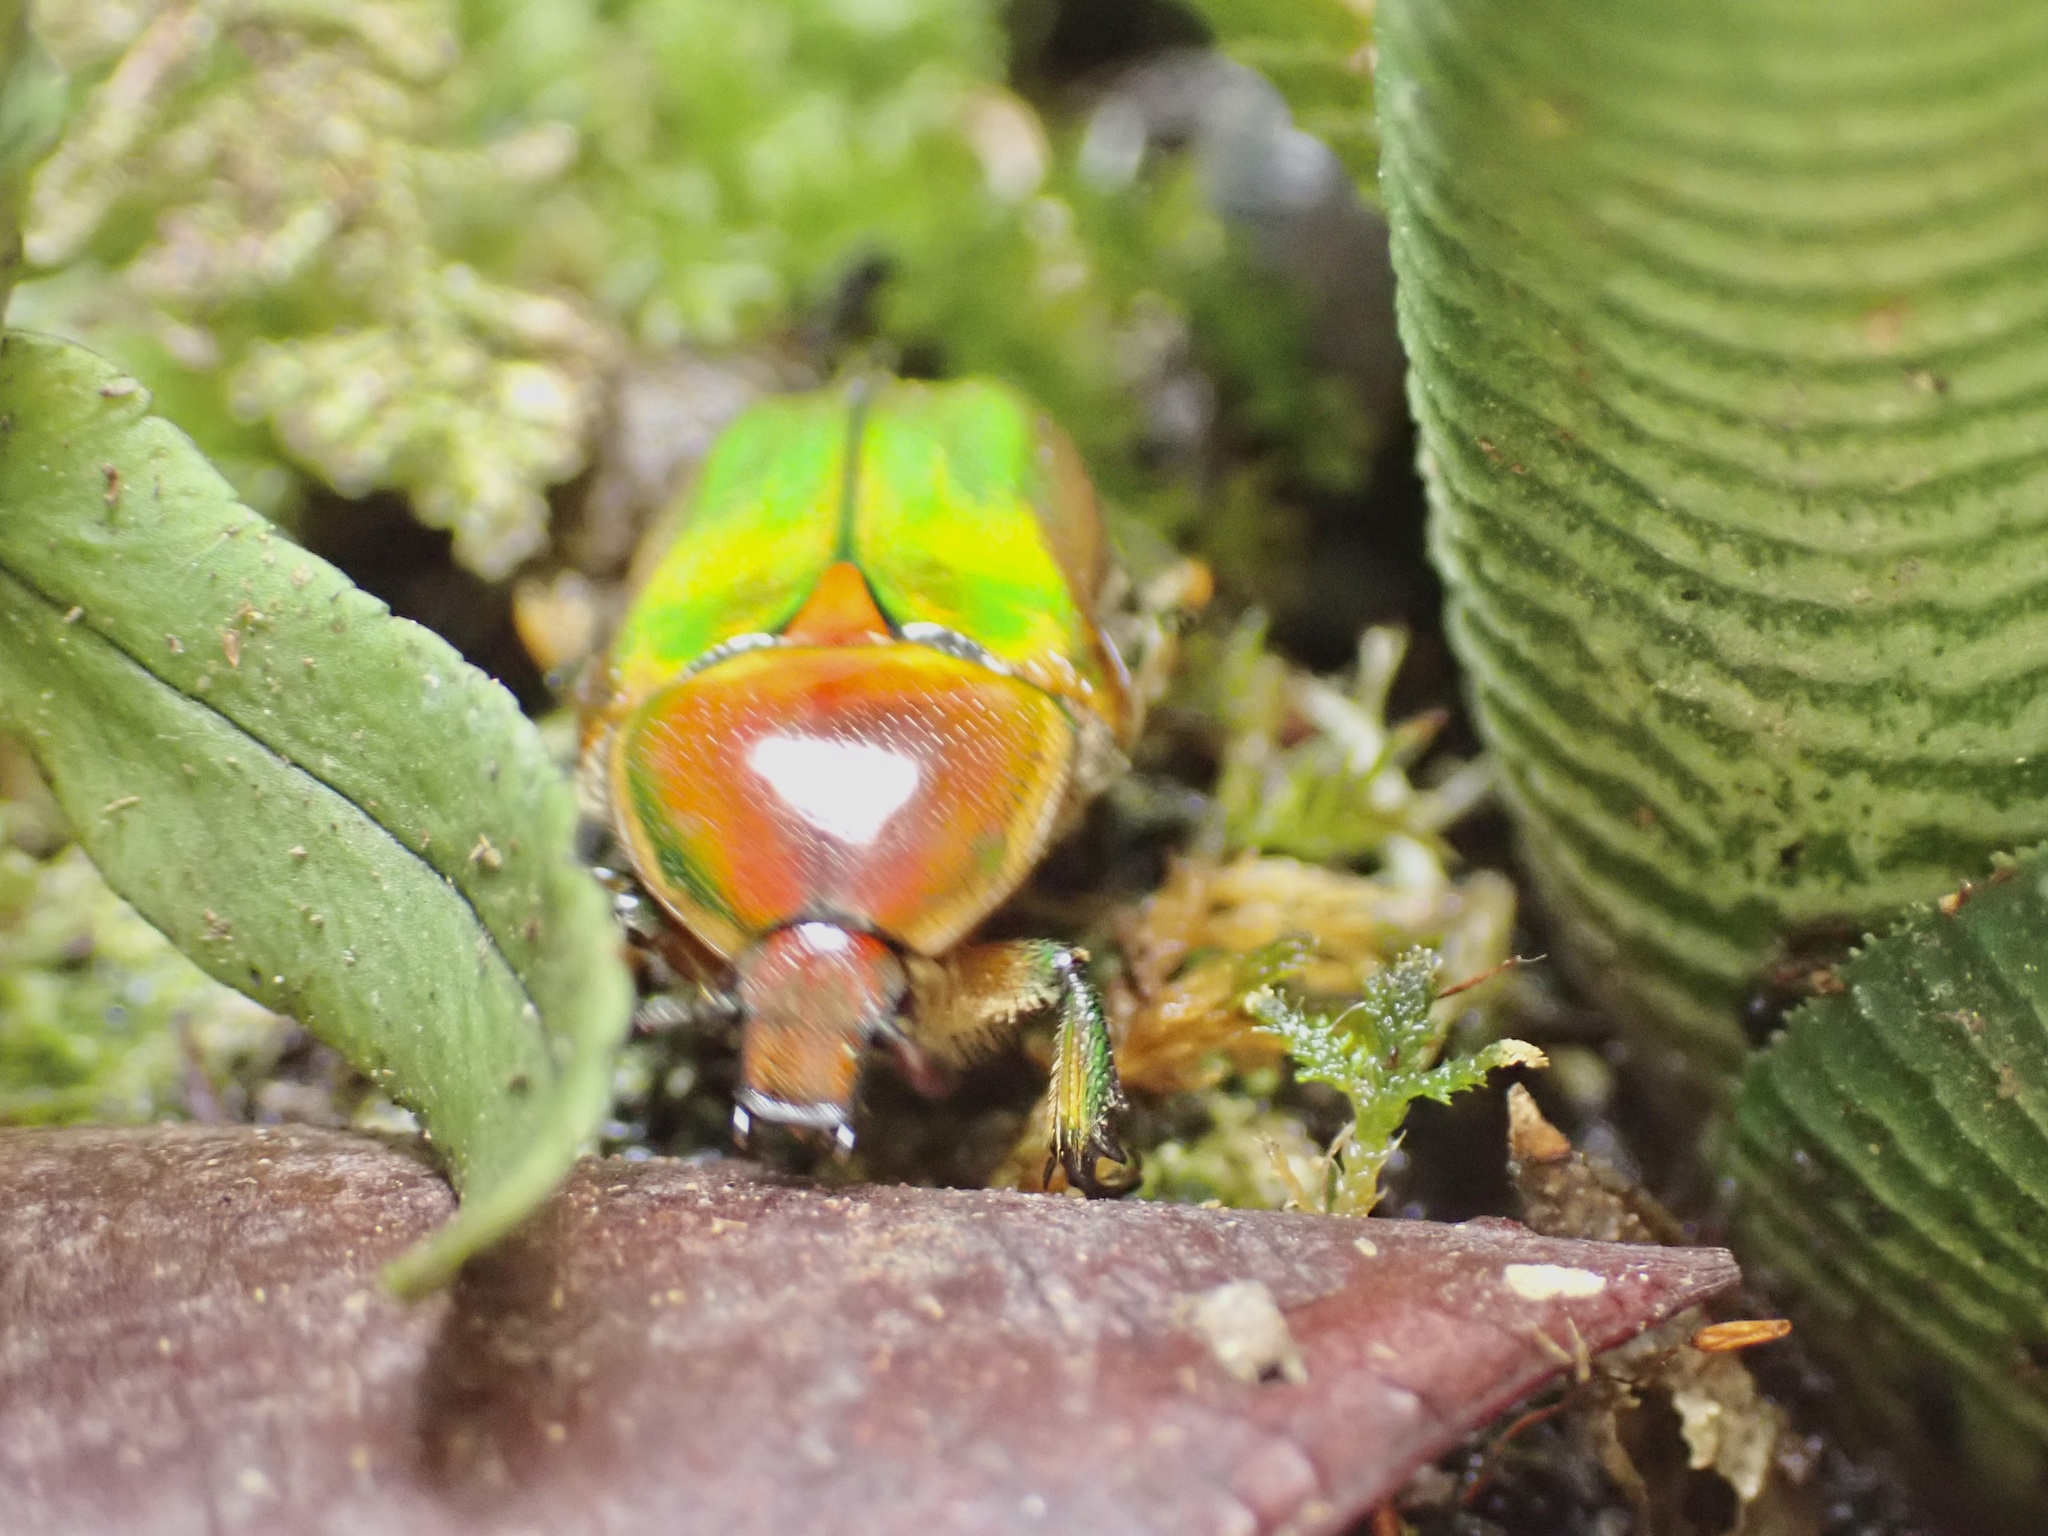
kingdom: Animalia
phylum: Arthropoda
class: Insecta
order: Coleoptera
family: Scarabaeidae
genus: Euphoria
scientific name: Euphoria fulgida
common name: Emerald euphoria
